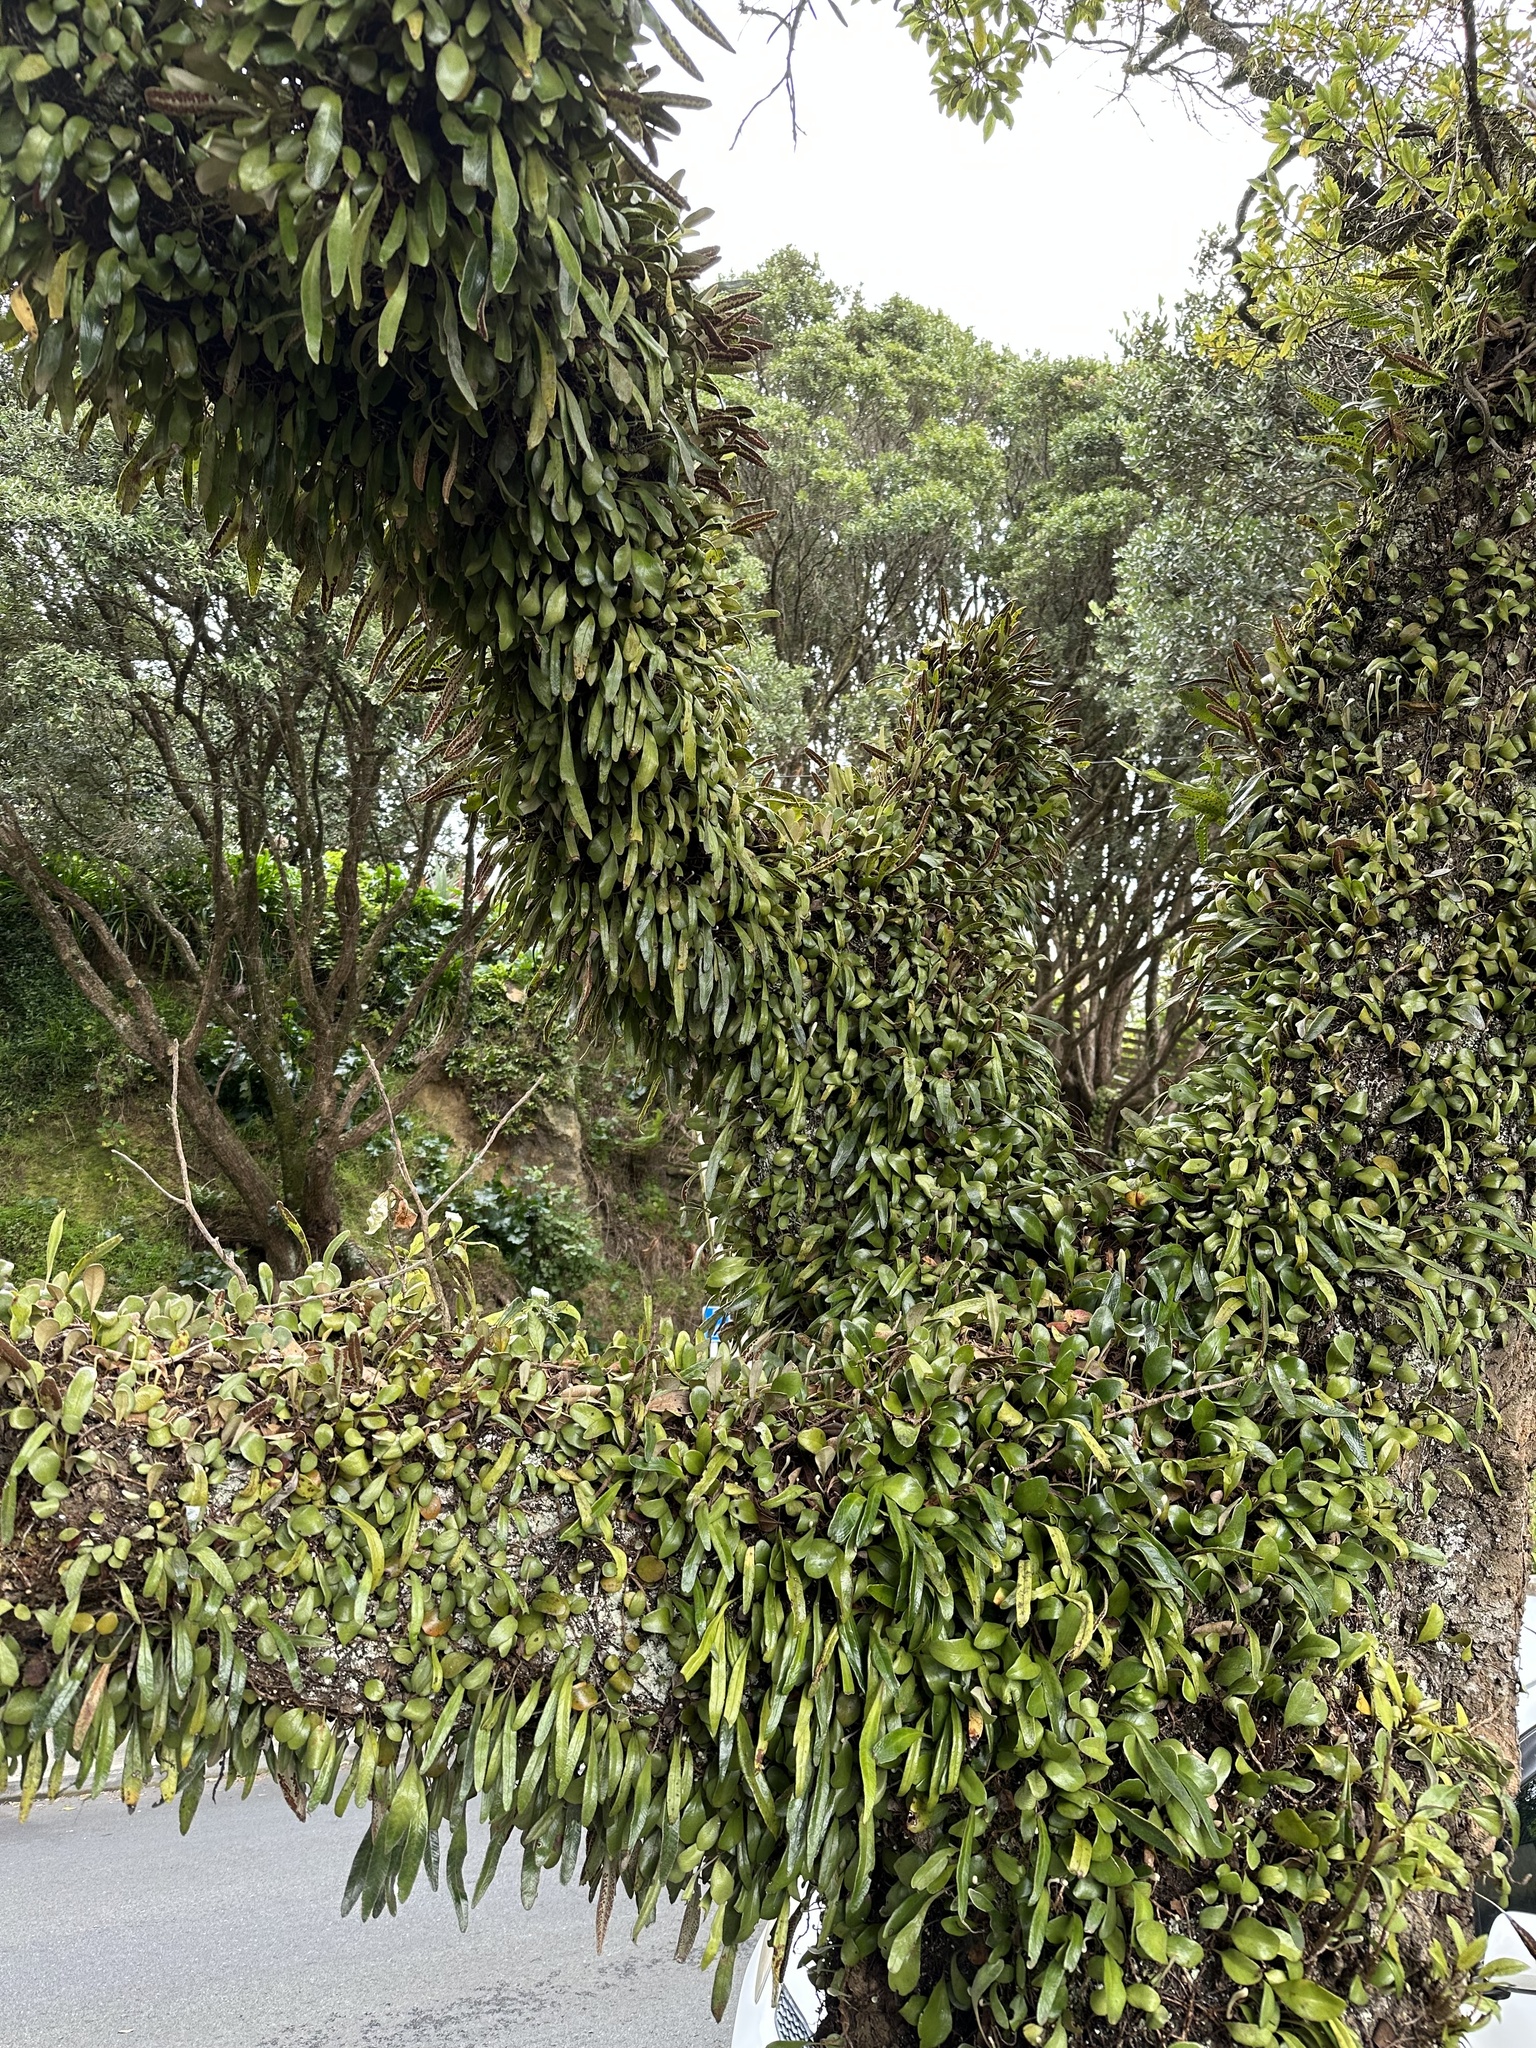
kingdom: Plantae
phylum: Tracheophyta
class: Polypodiopsida
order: Polypodiales
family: Polypodiaceae
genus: Pyrrosia
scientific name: Pyrrosia eleagnifolia
